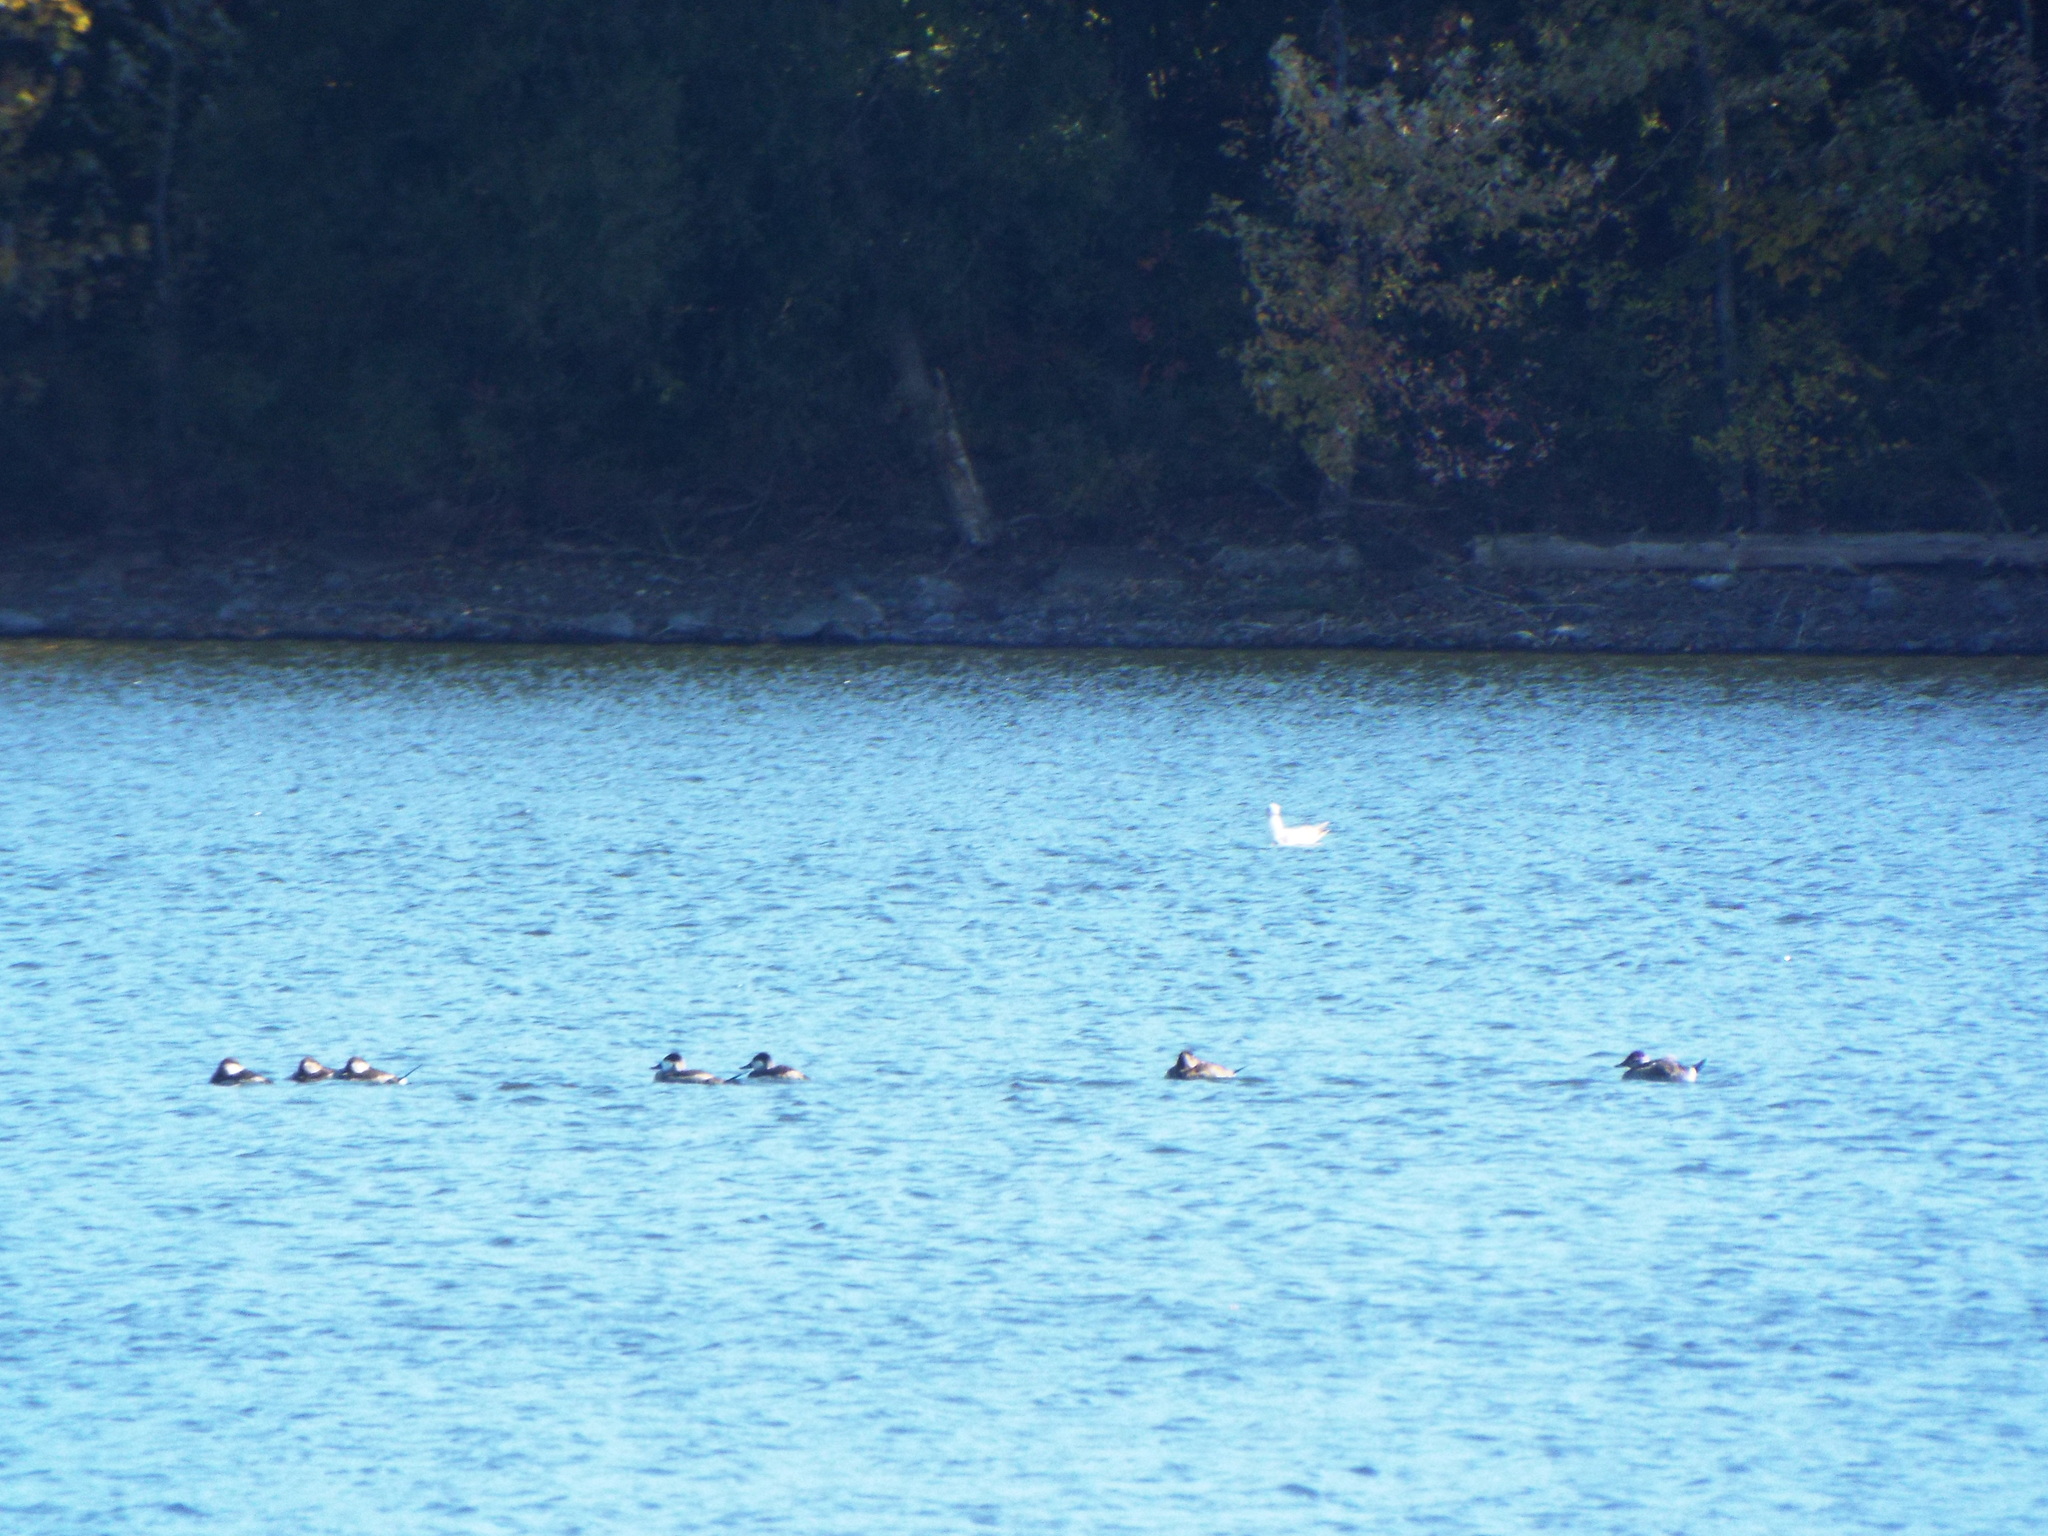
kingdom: Animalia
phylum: Chordata
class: Aves
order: Anseriformes
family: Anatidae
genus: Oxyura
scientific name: Oxyura jamaicensis
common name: Ruddy duck
